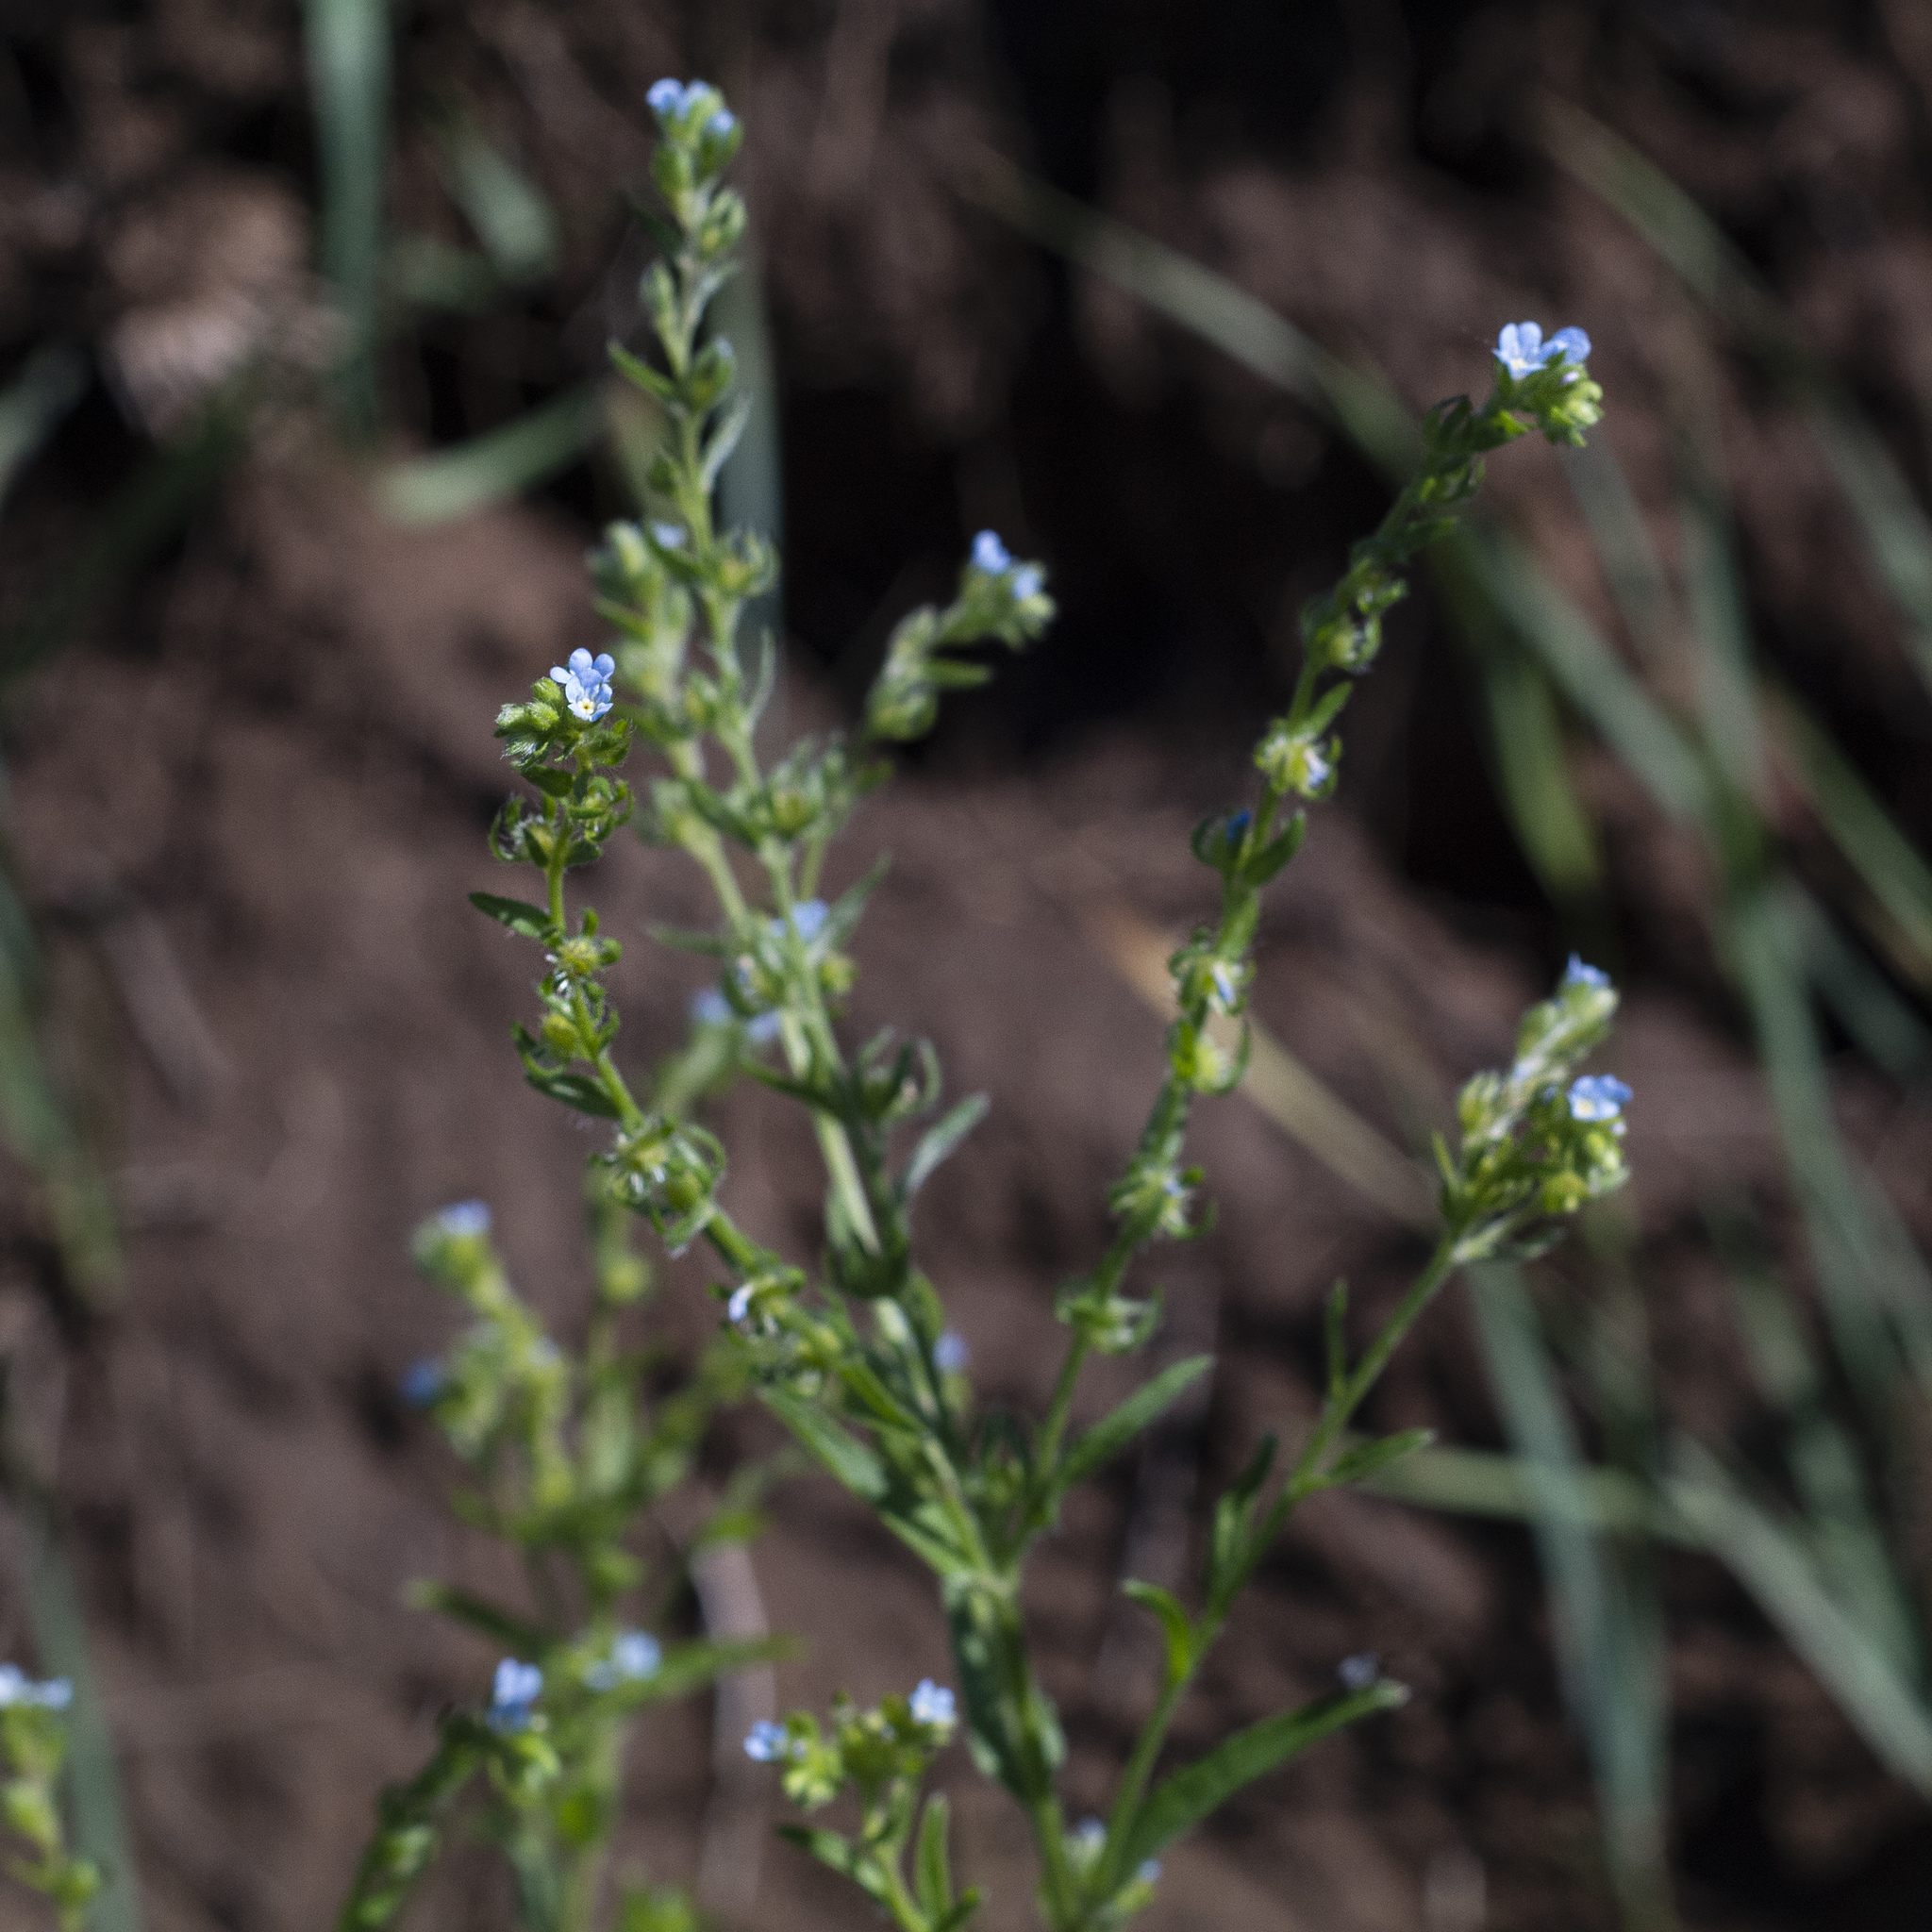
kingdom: Plantae
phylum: Tracheophyta
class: Magnoliopsida
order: Boraginales
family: Boraginaceae
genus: Lappula
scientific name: Lappula squarrosa
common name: European stickseed
